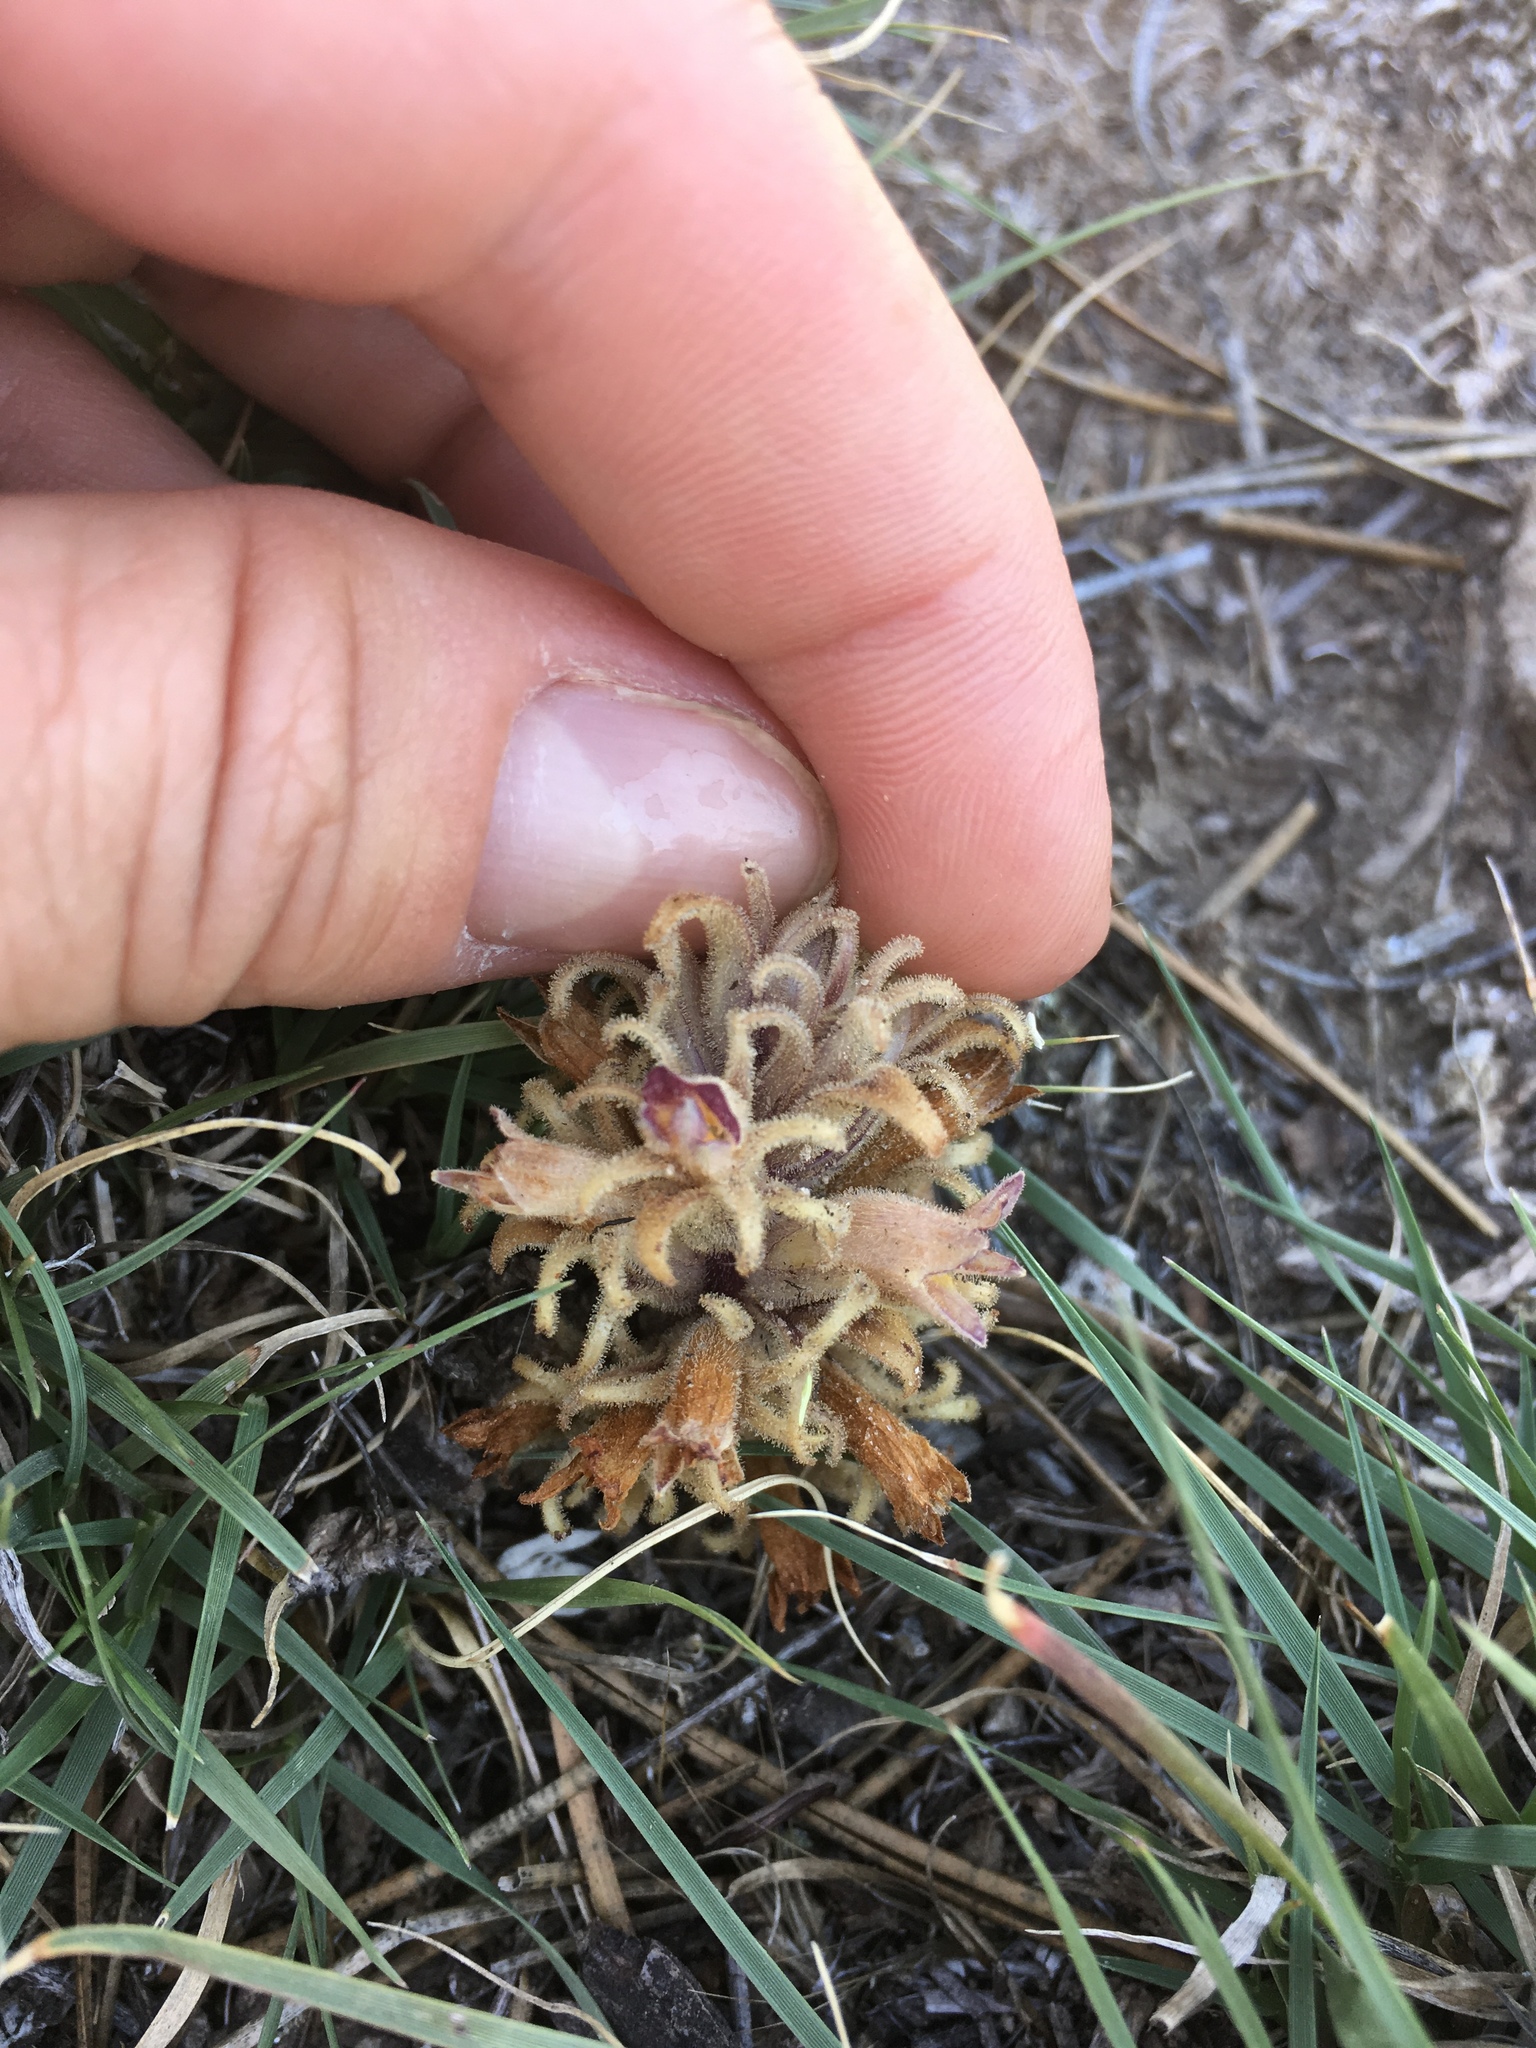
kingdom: Plantae
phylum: Tracheophyta
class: Magnoliopsida
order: Lamiales
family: Orobanchaceae
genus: Aphyllon
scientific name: Aphyllon ludovicianum
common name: Louisiana broomrape
